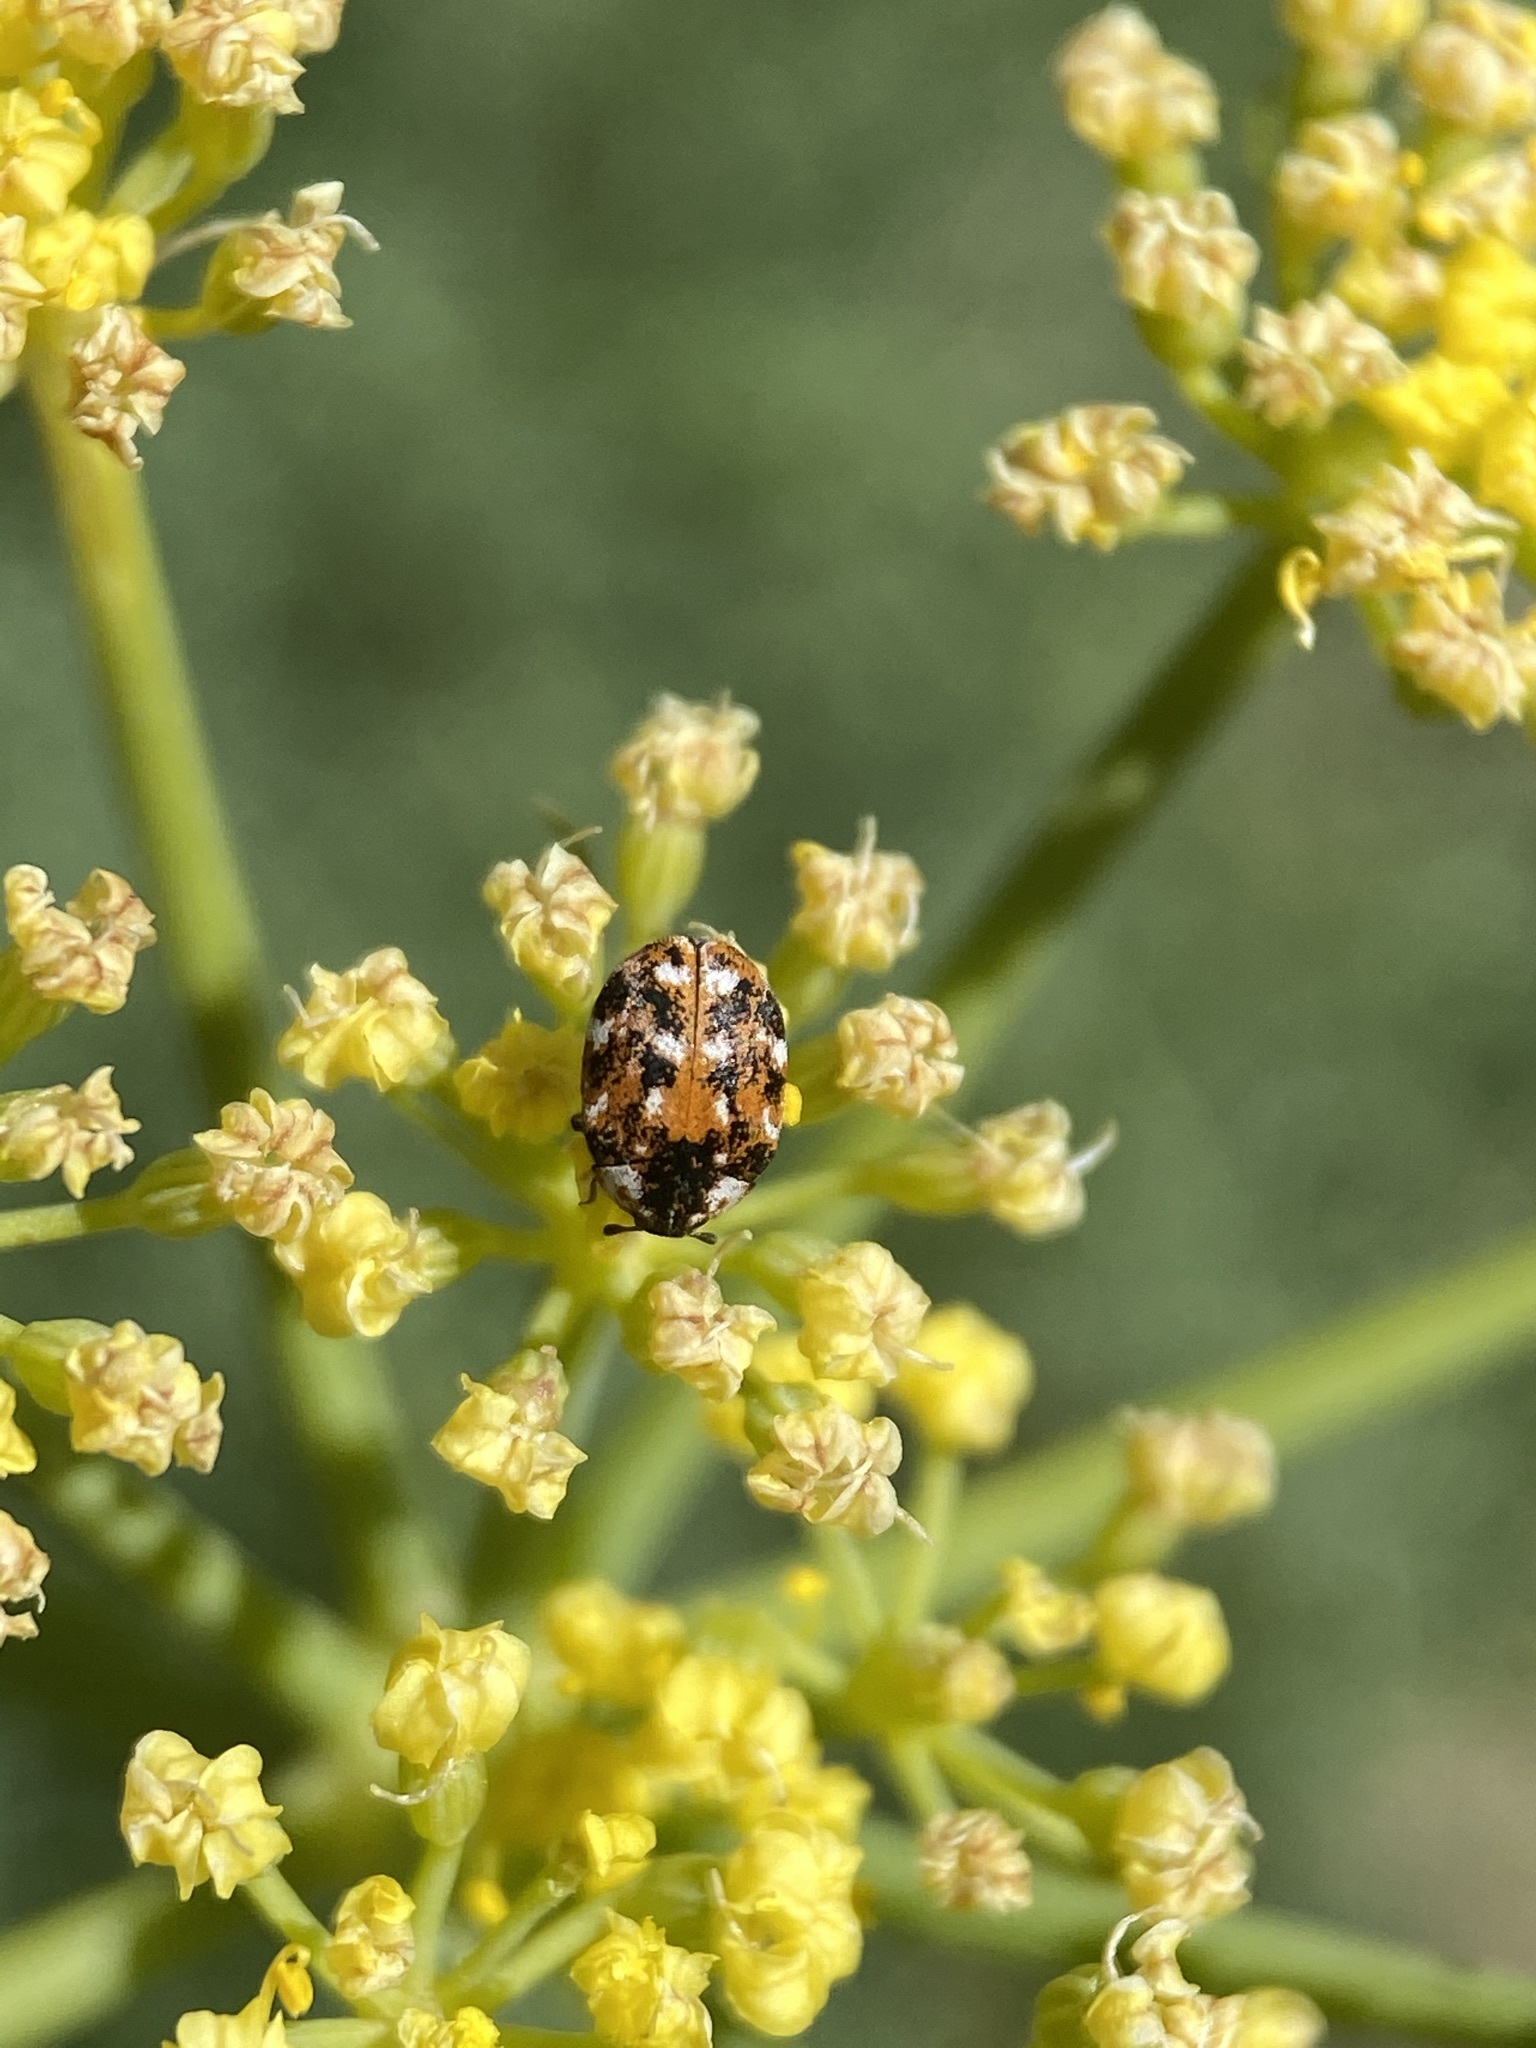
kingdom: Animalia
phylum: Arthropoda
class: Insecta
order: Coleoptera
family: Dermestidae
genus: Anthrenus
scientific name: Anthrenus lepidus
